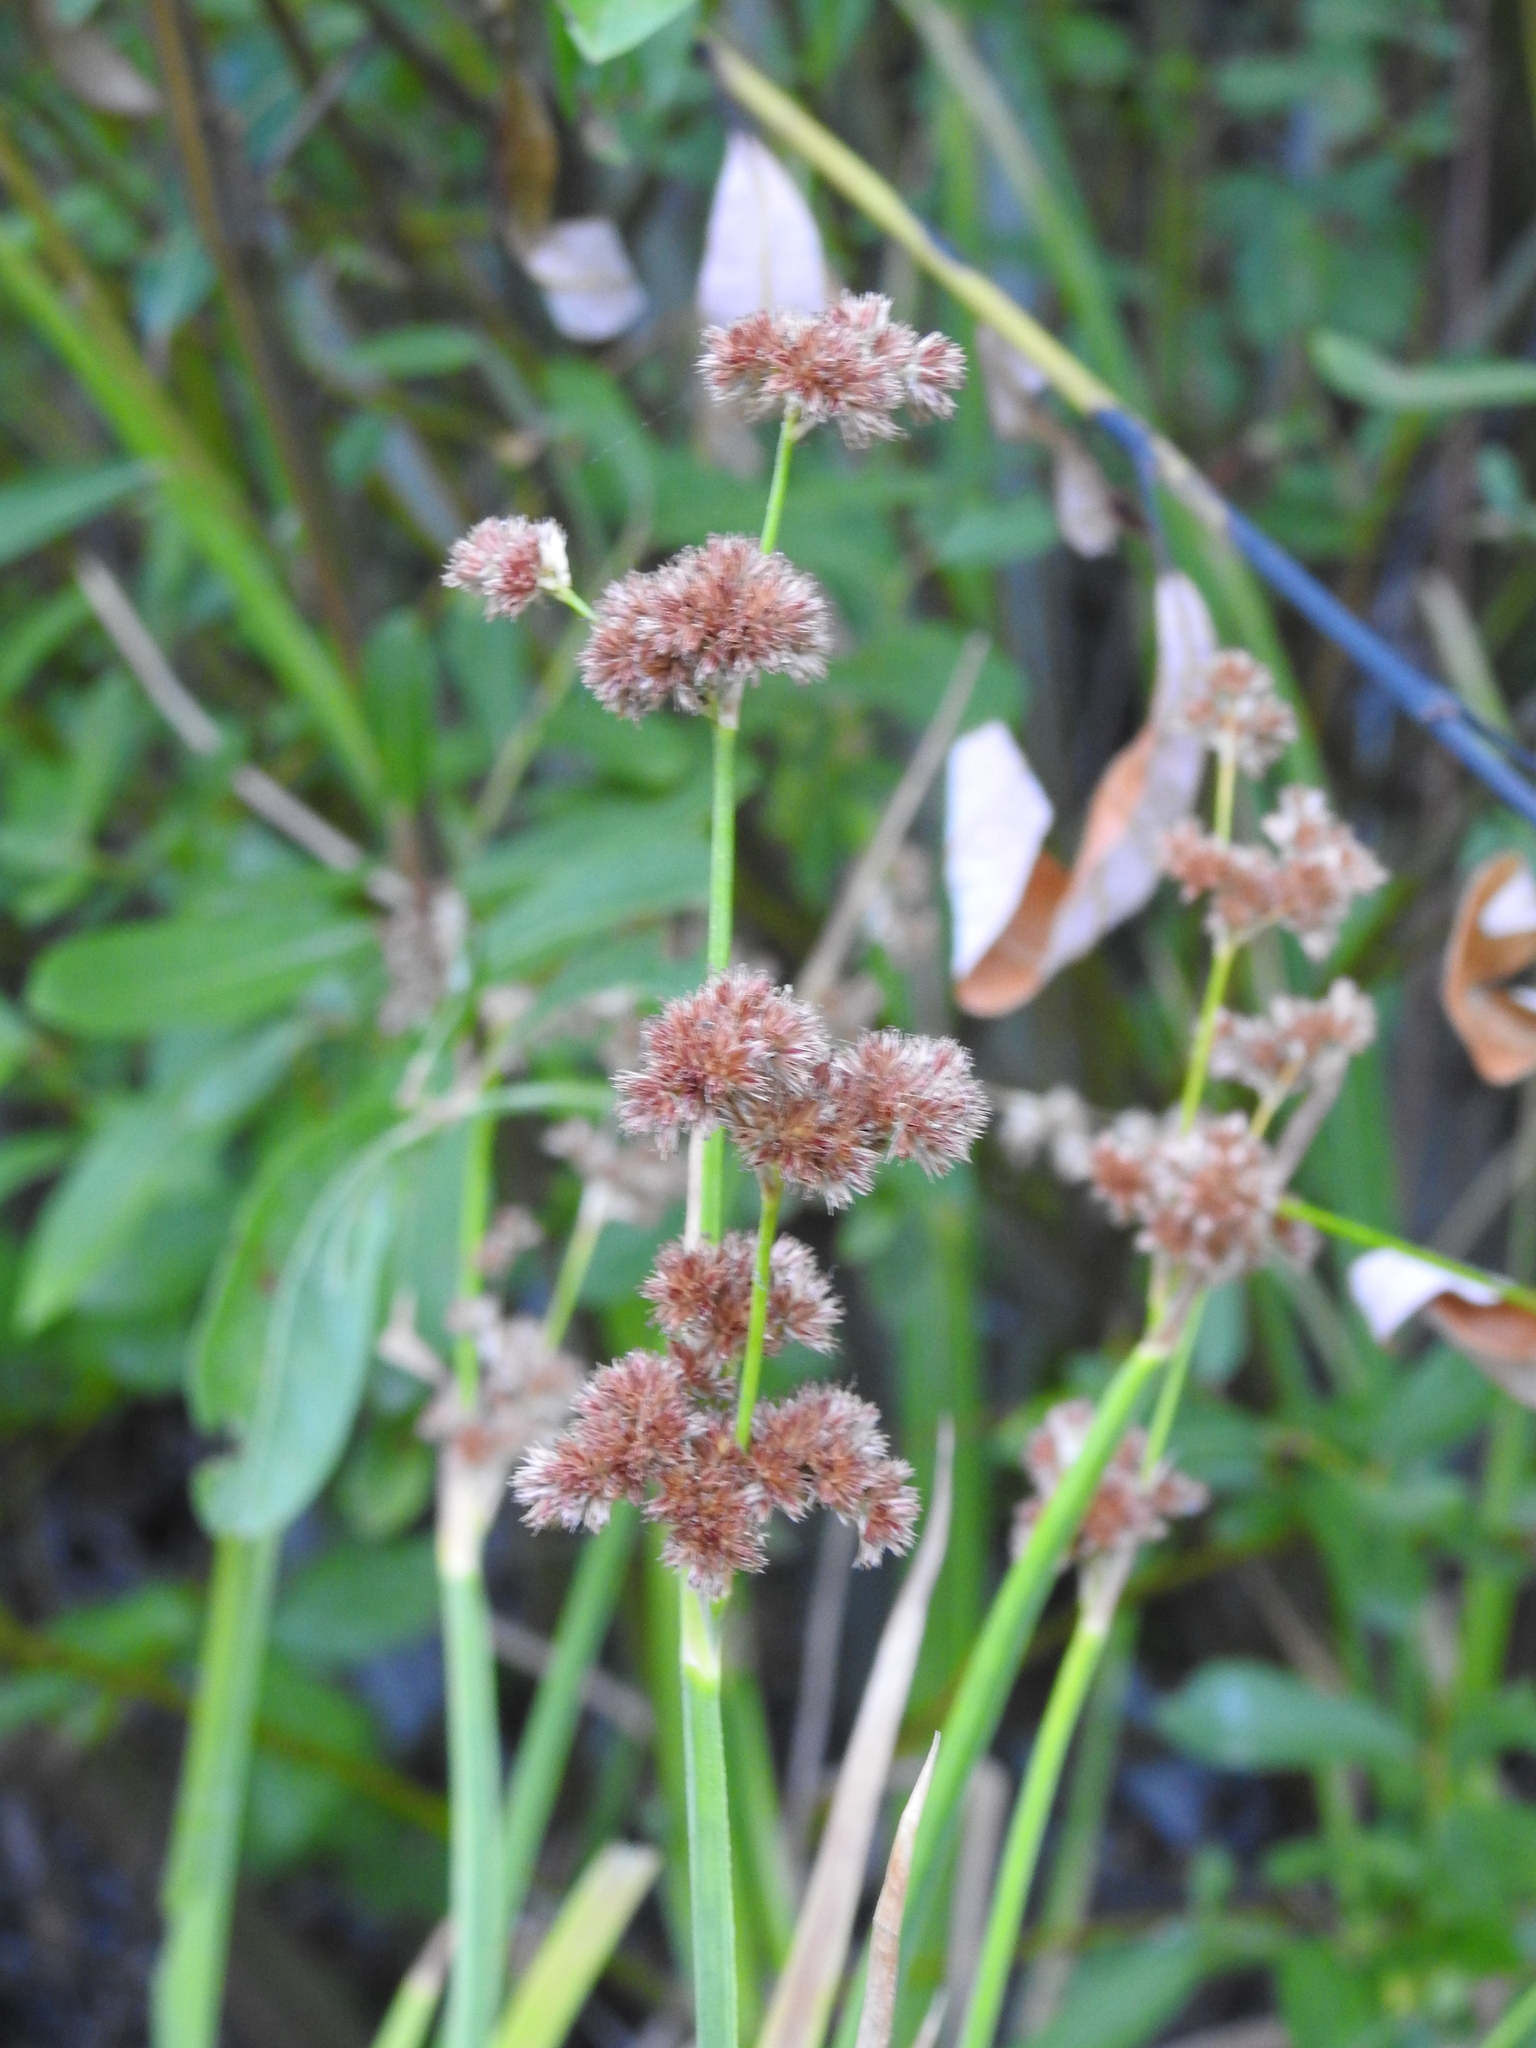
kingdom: Plantae
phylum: Tracheophyta
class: Liliopsida
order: Poales
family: Juncaceae
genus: Juncus
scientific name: Juncus phaeocephalus
